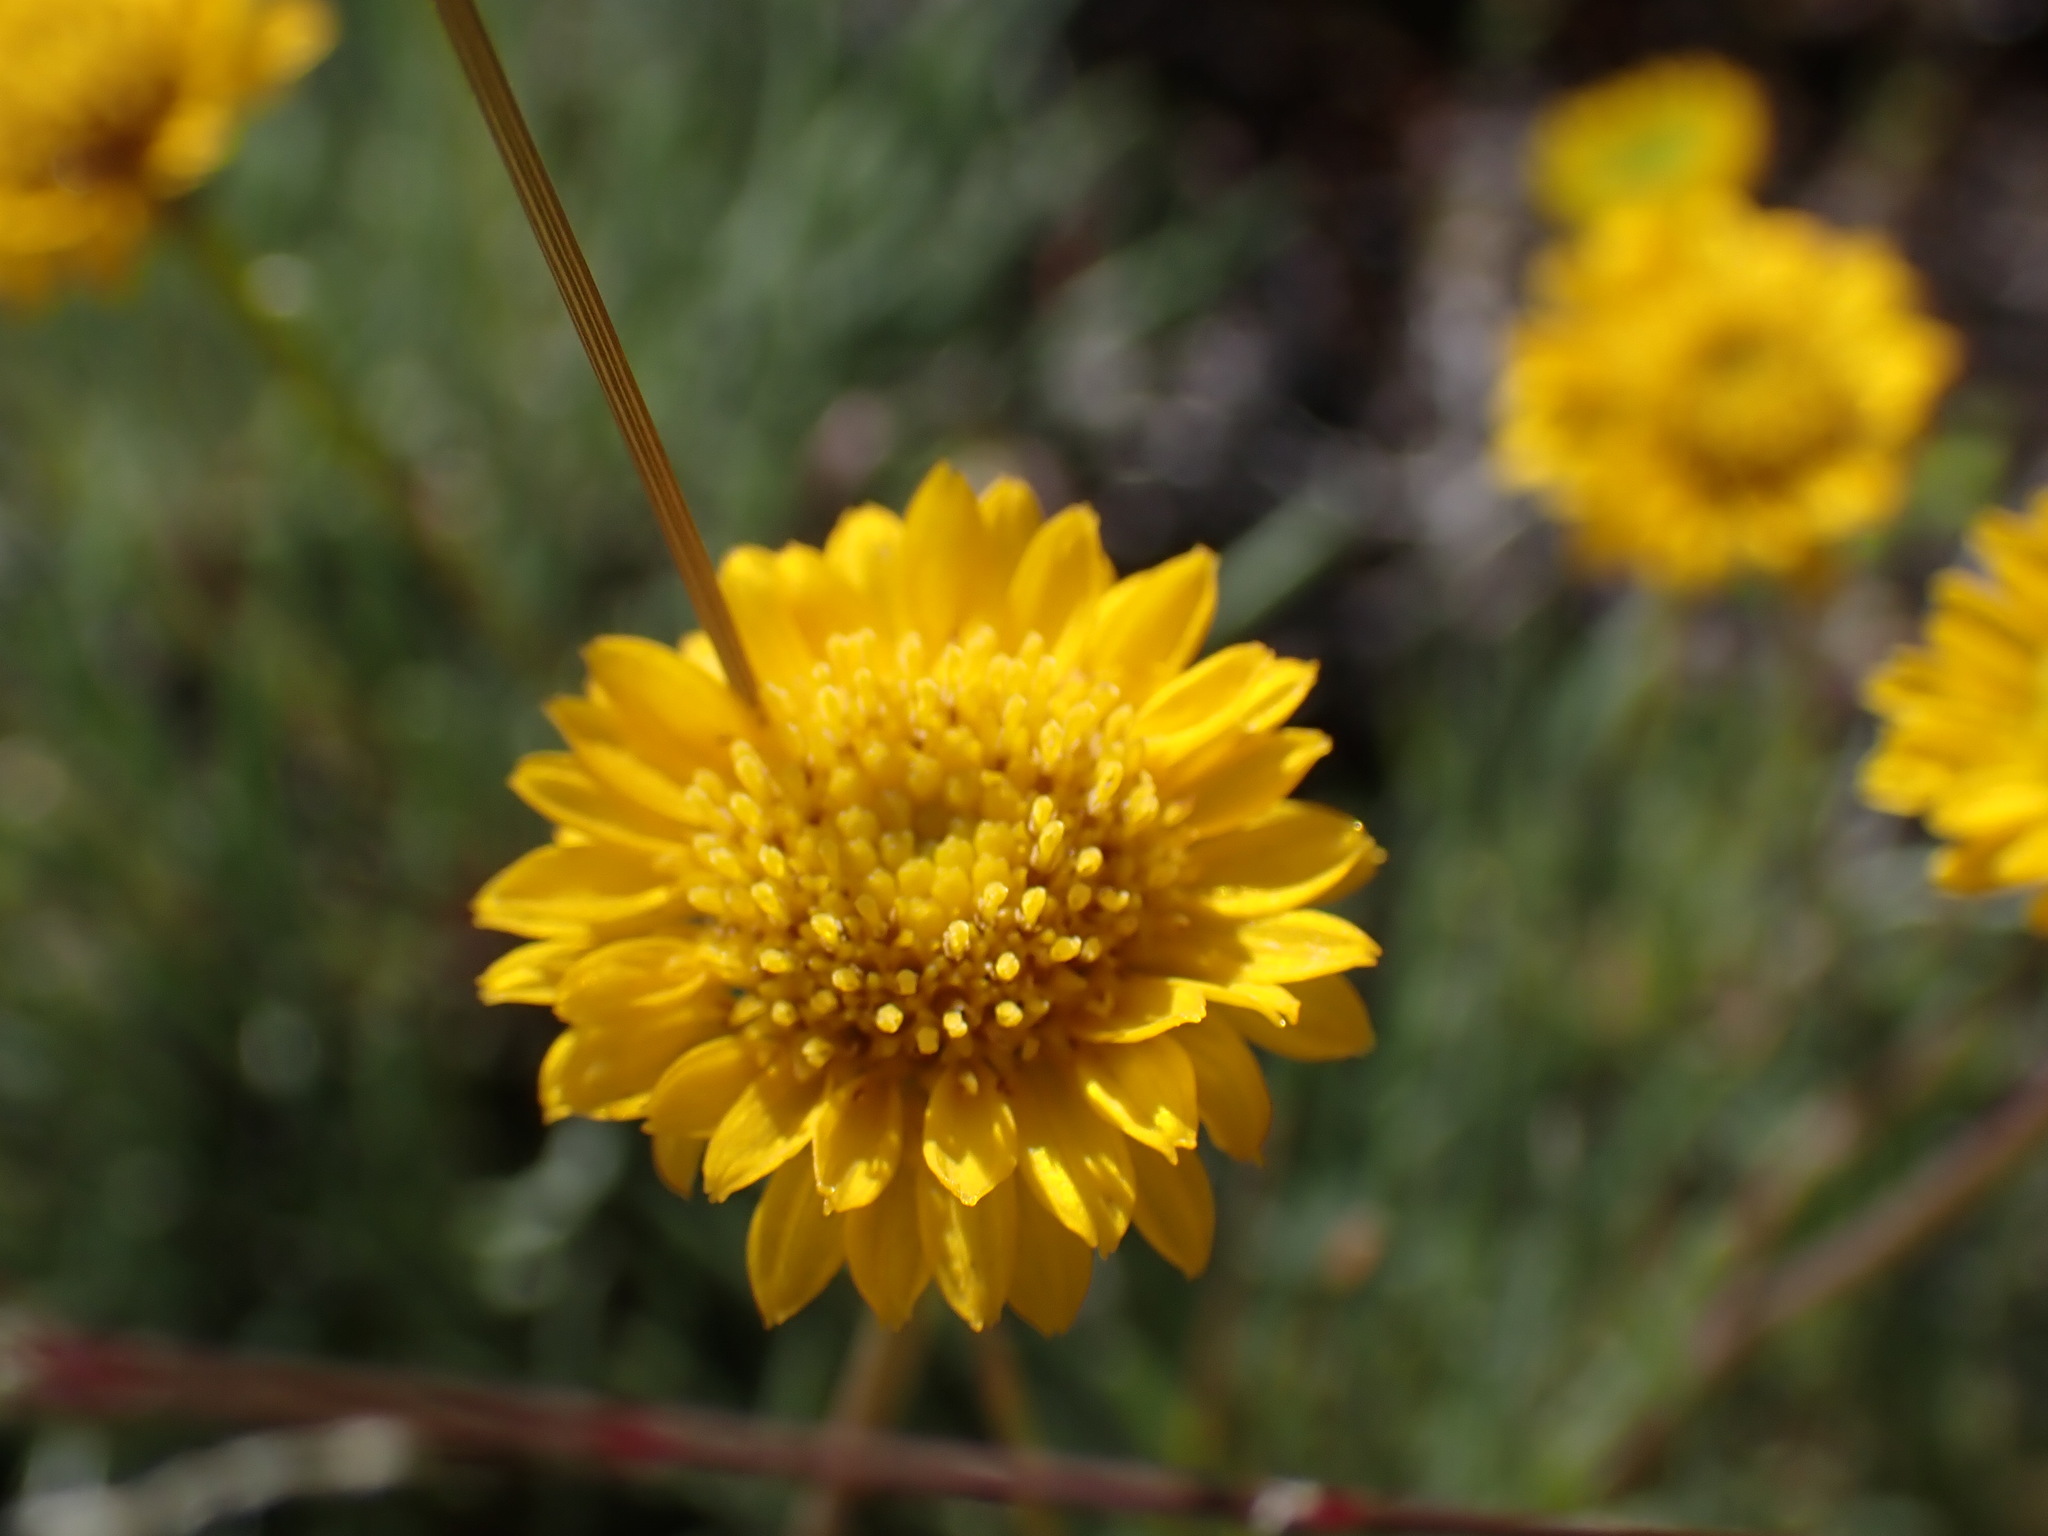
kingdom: Plantae
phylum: Tracheophyta
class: Magnoliopsida
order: Asterales
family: Asteraceae
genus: Erigeron
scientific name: Erigeron linearis
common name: Desert yellow fleabane
